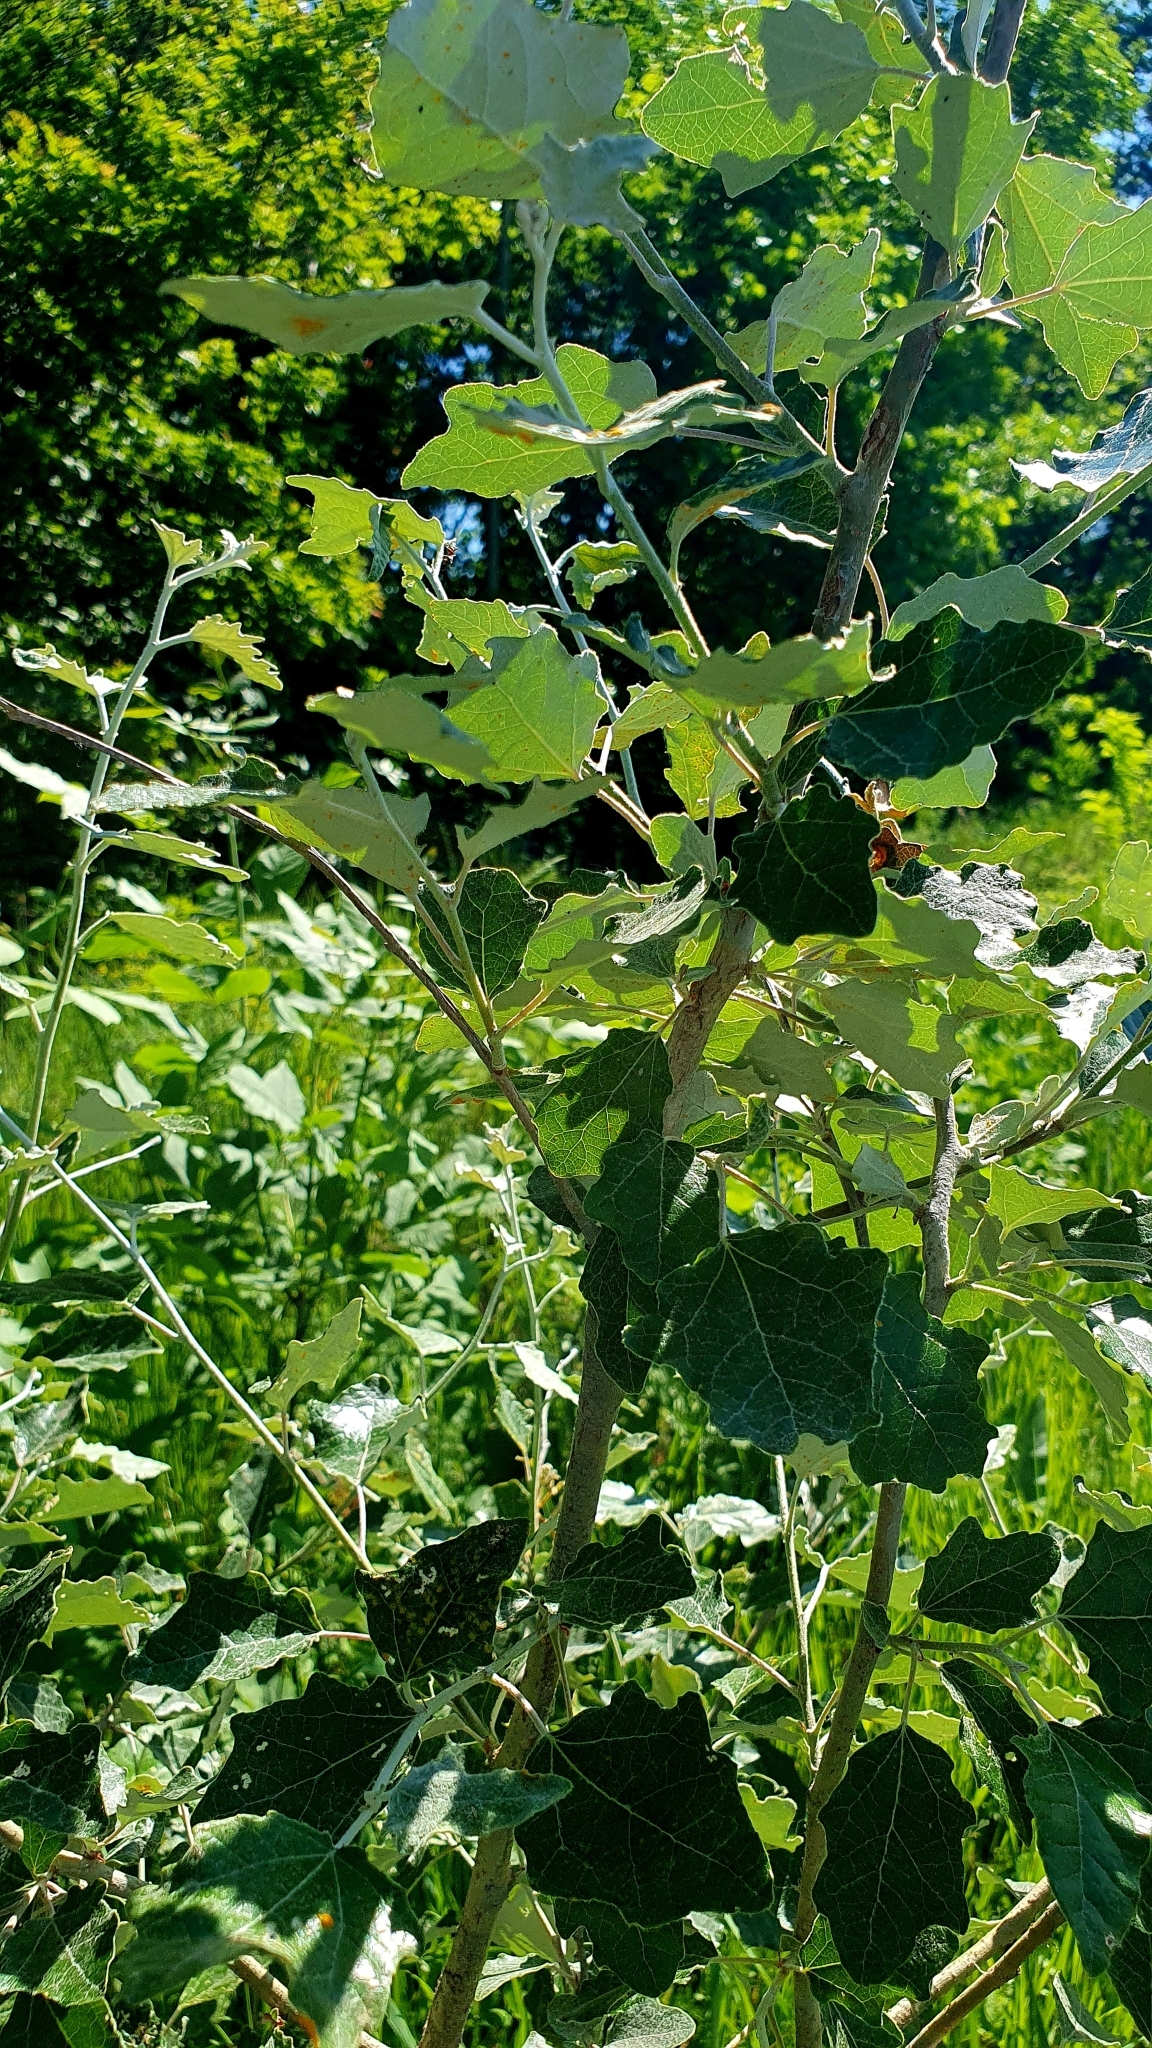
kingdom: Plantae
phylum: Tracheophyta
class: Magnoliopsida
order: Malpighiales
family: Salicaceae
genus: Populus
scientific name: Populus alba
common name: White poplar
